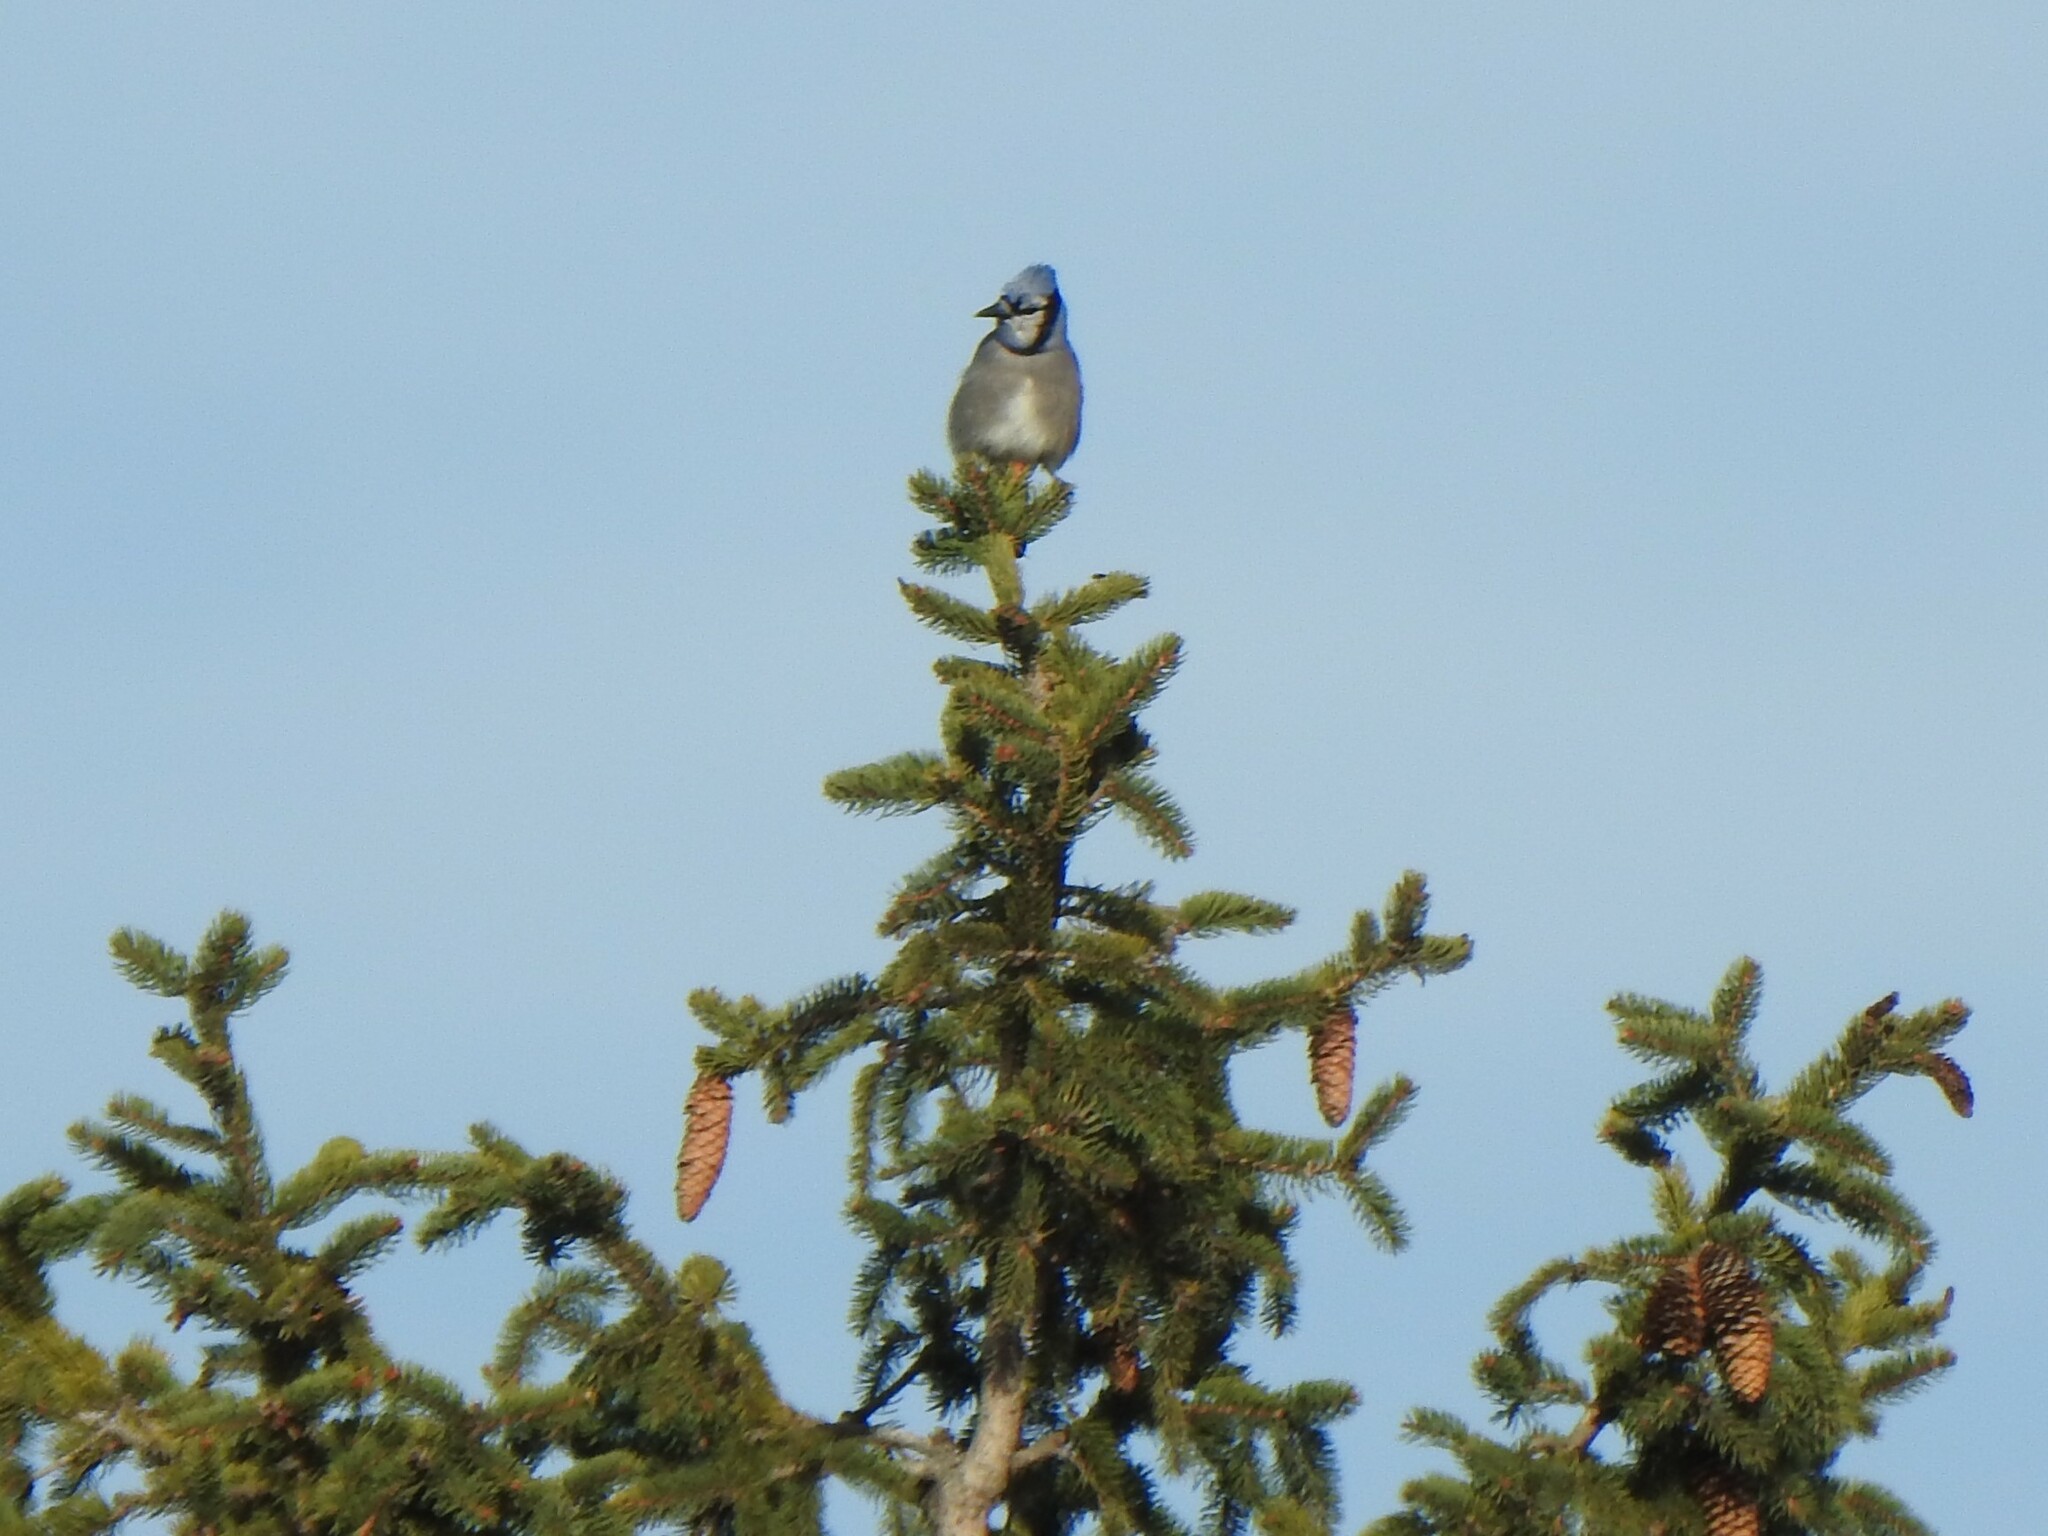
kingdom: Animalia
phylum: Chordata
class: Aves
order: Passeriformes
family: Corvidae
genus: Cyanocitta
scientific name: Cyanocitta cristata
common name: Blue jay
